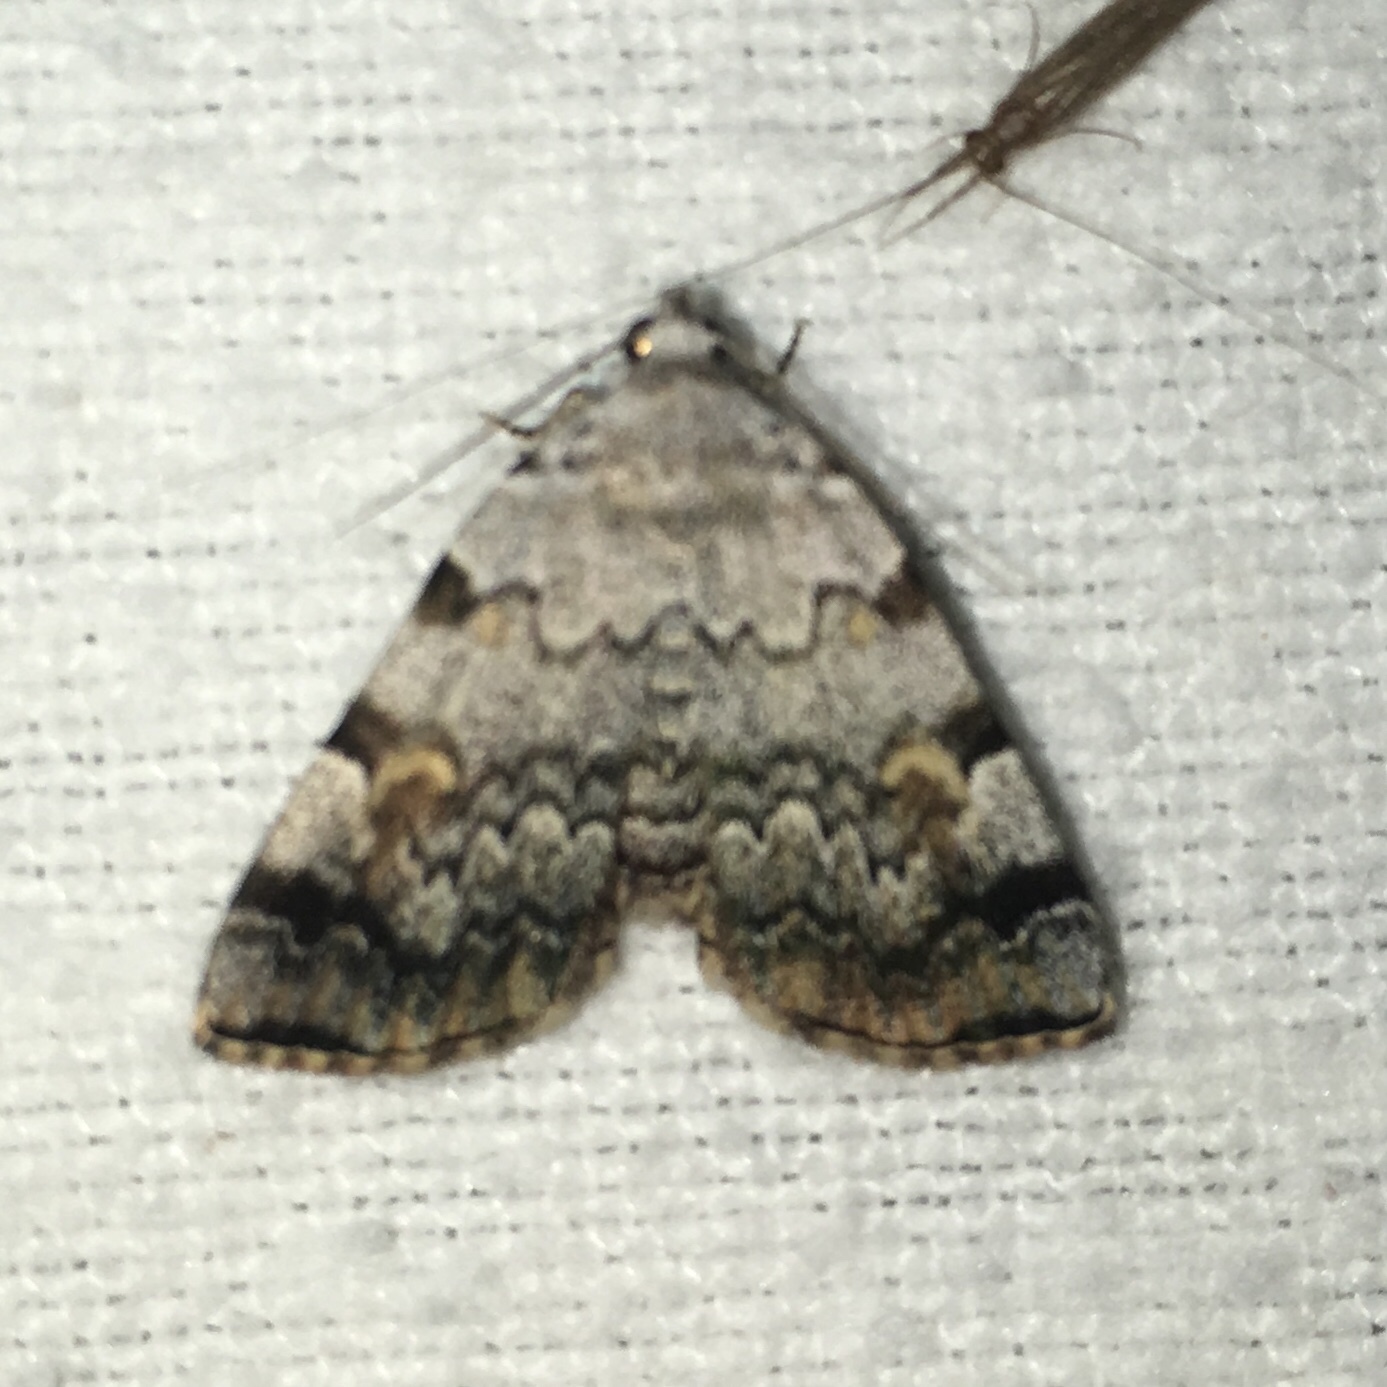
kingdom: Animalia
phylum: Arthropoda
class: Insecta
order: Lepidoptera
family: Erebidae
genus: Idia
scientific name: Idia americalis
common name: American idia moth
